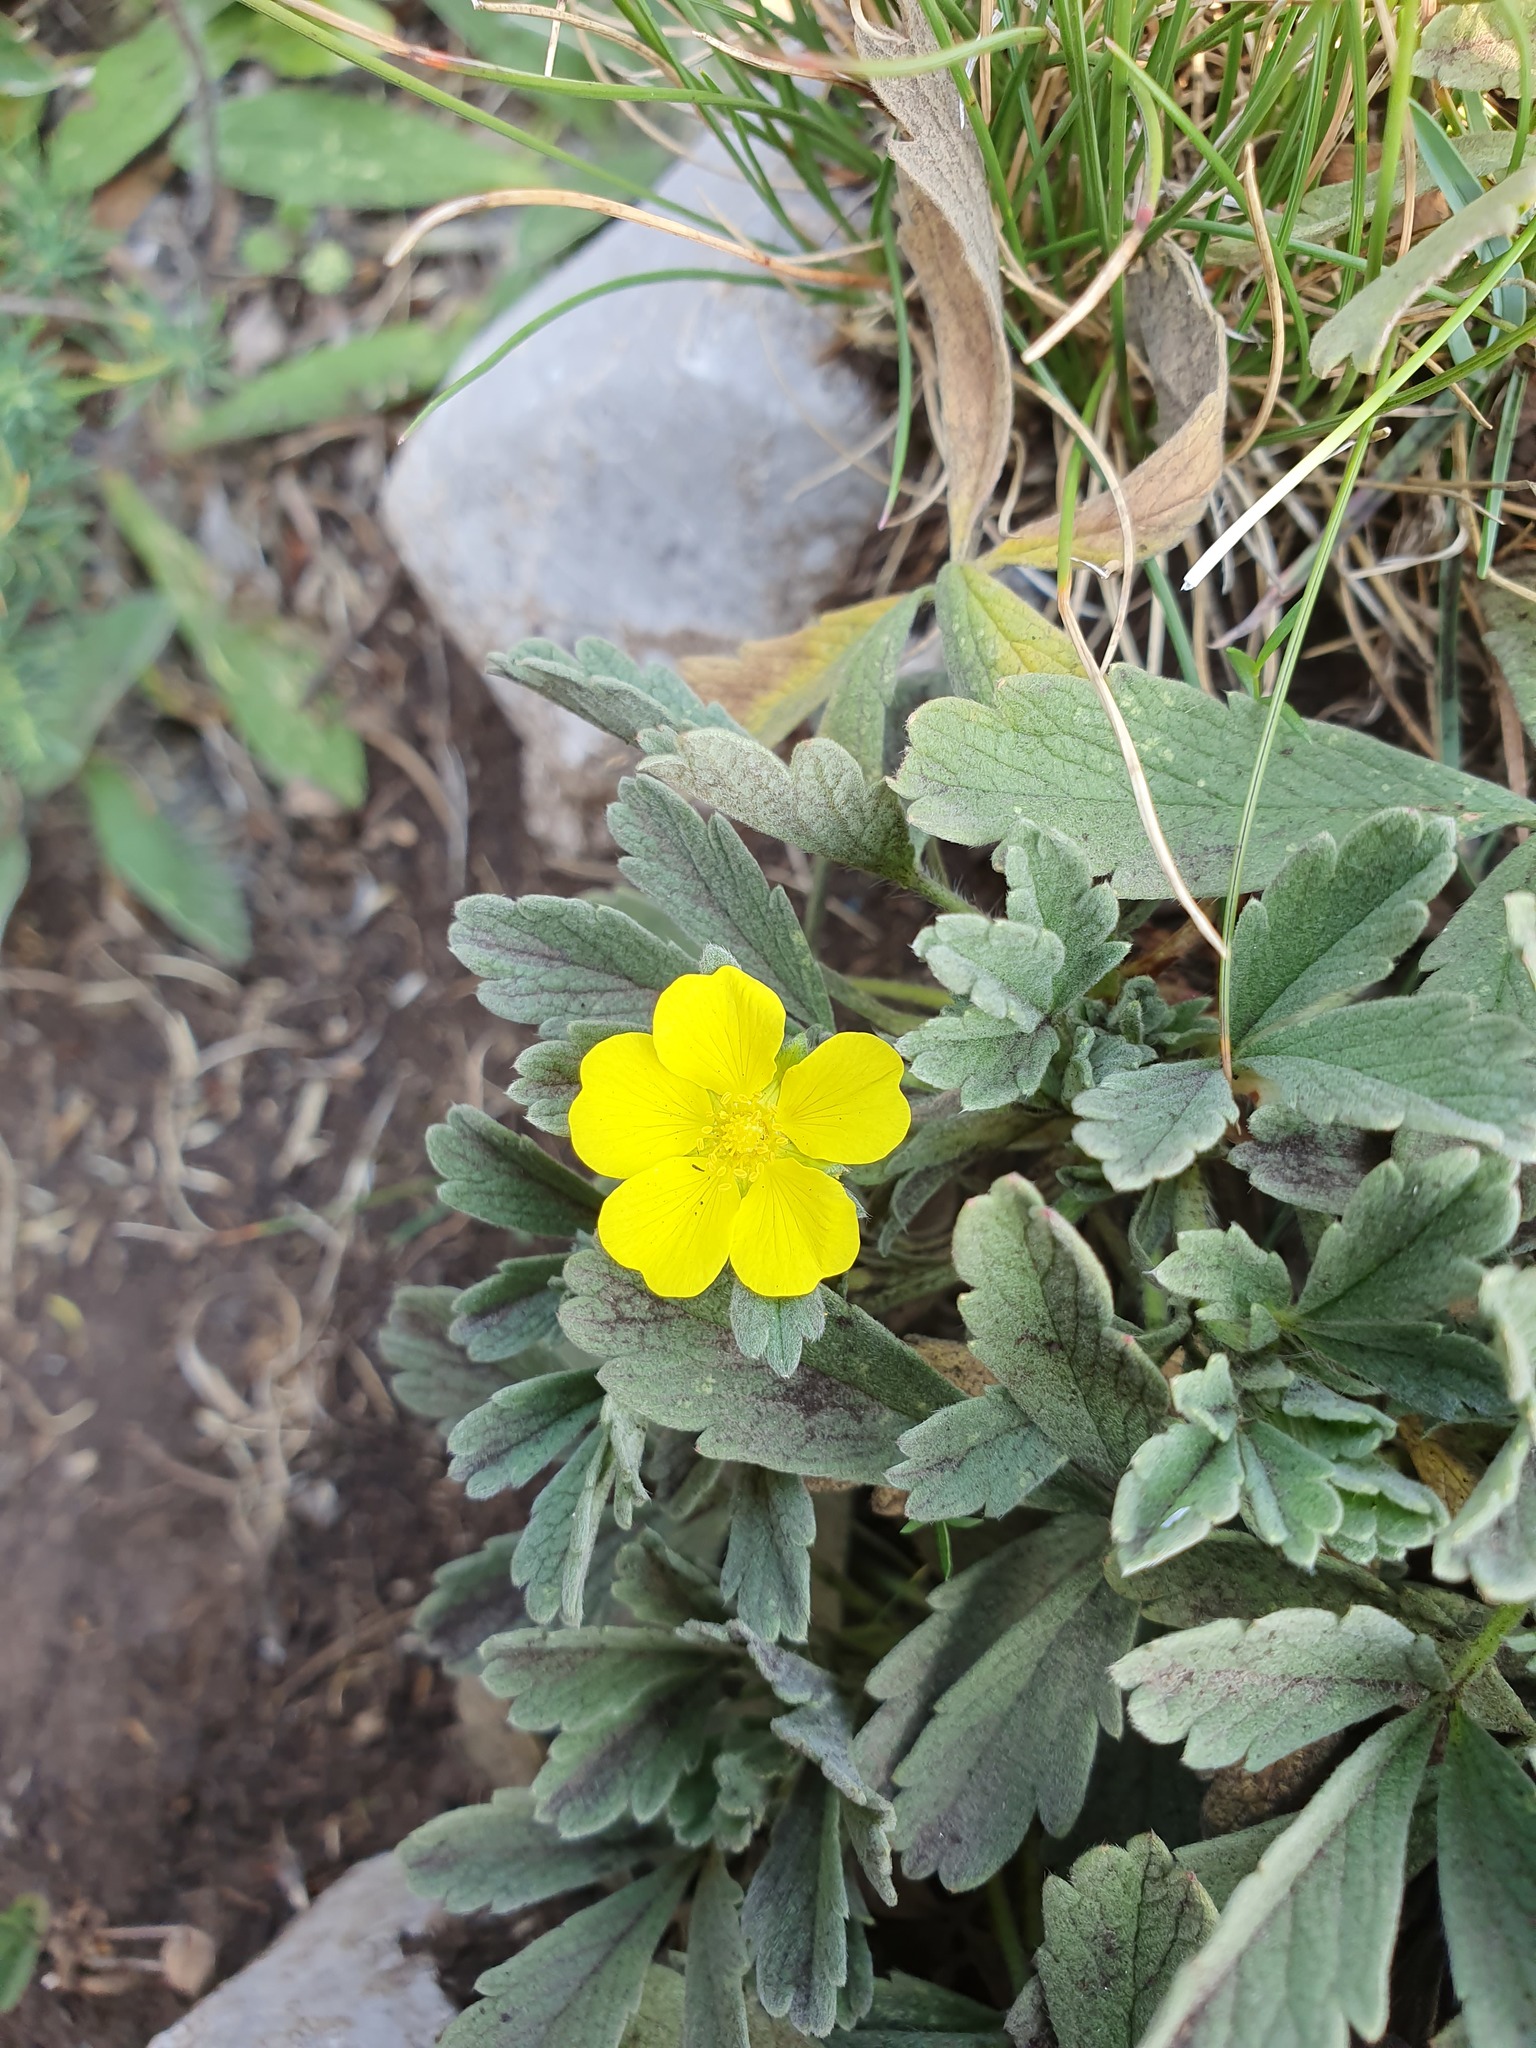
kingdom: Plantae
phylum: Tracheophyta
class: Magnoliopsida
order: Rosales
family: Rosaceae
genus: Potentilla
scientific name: Potentilla tommasiniana
